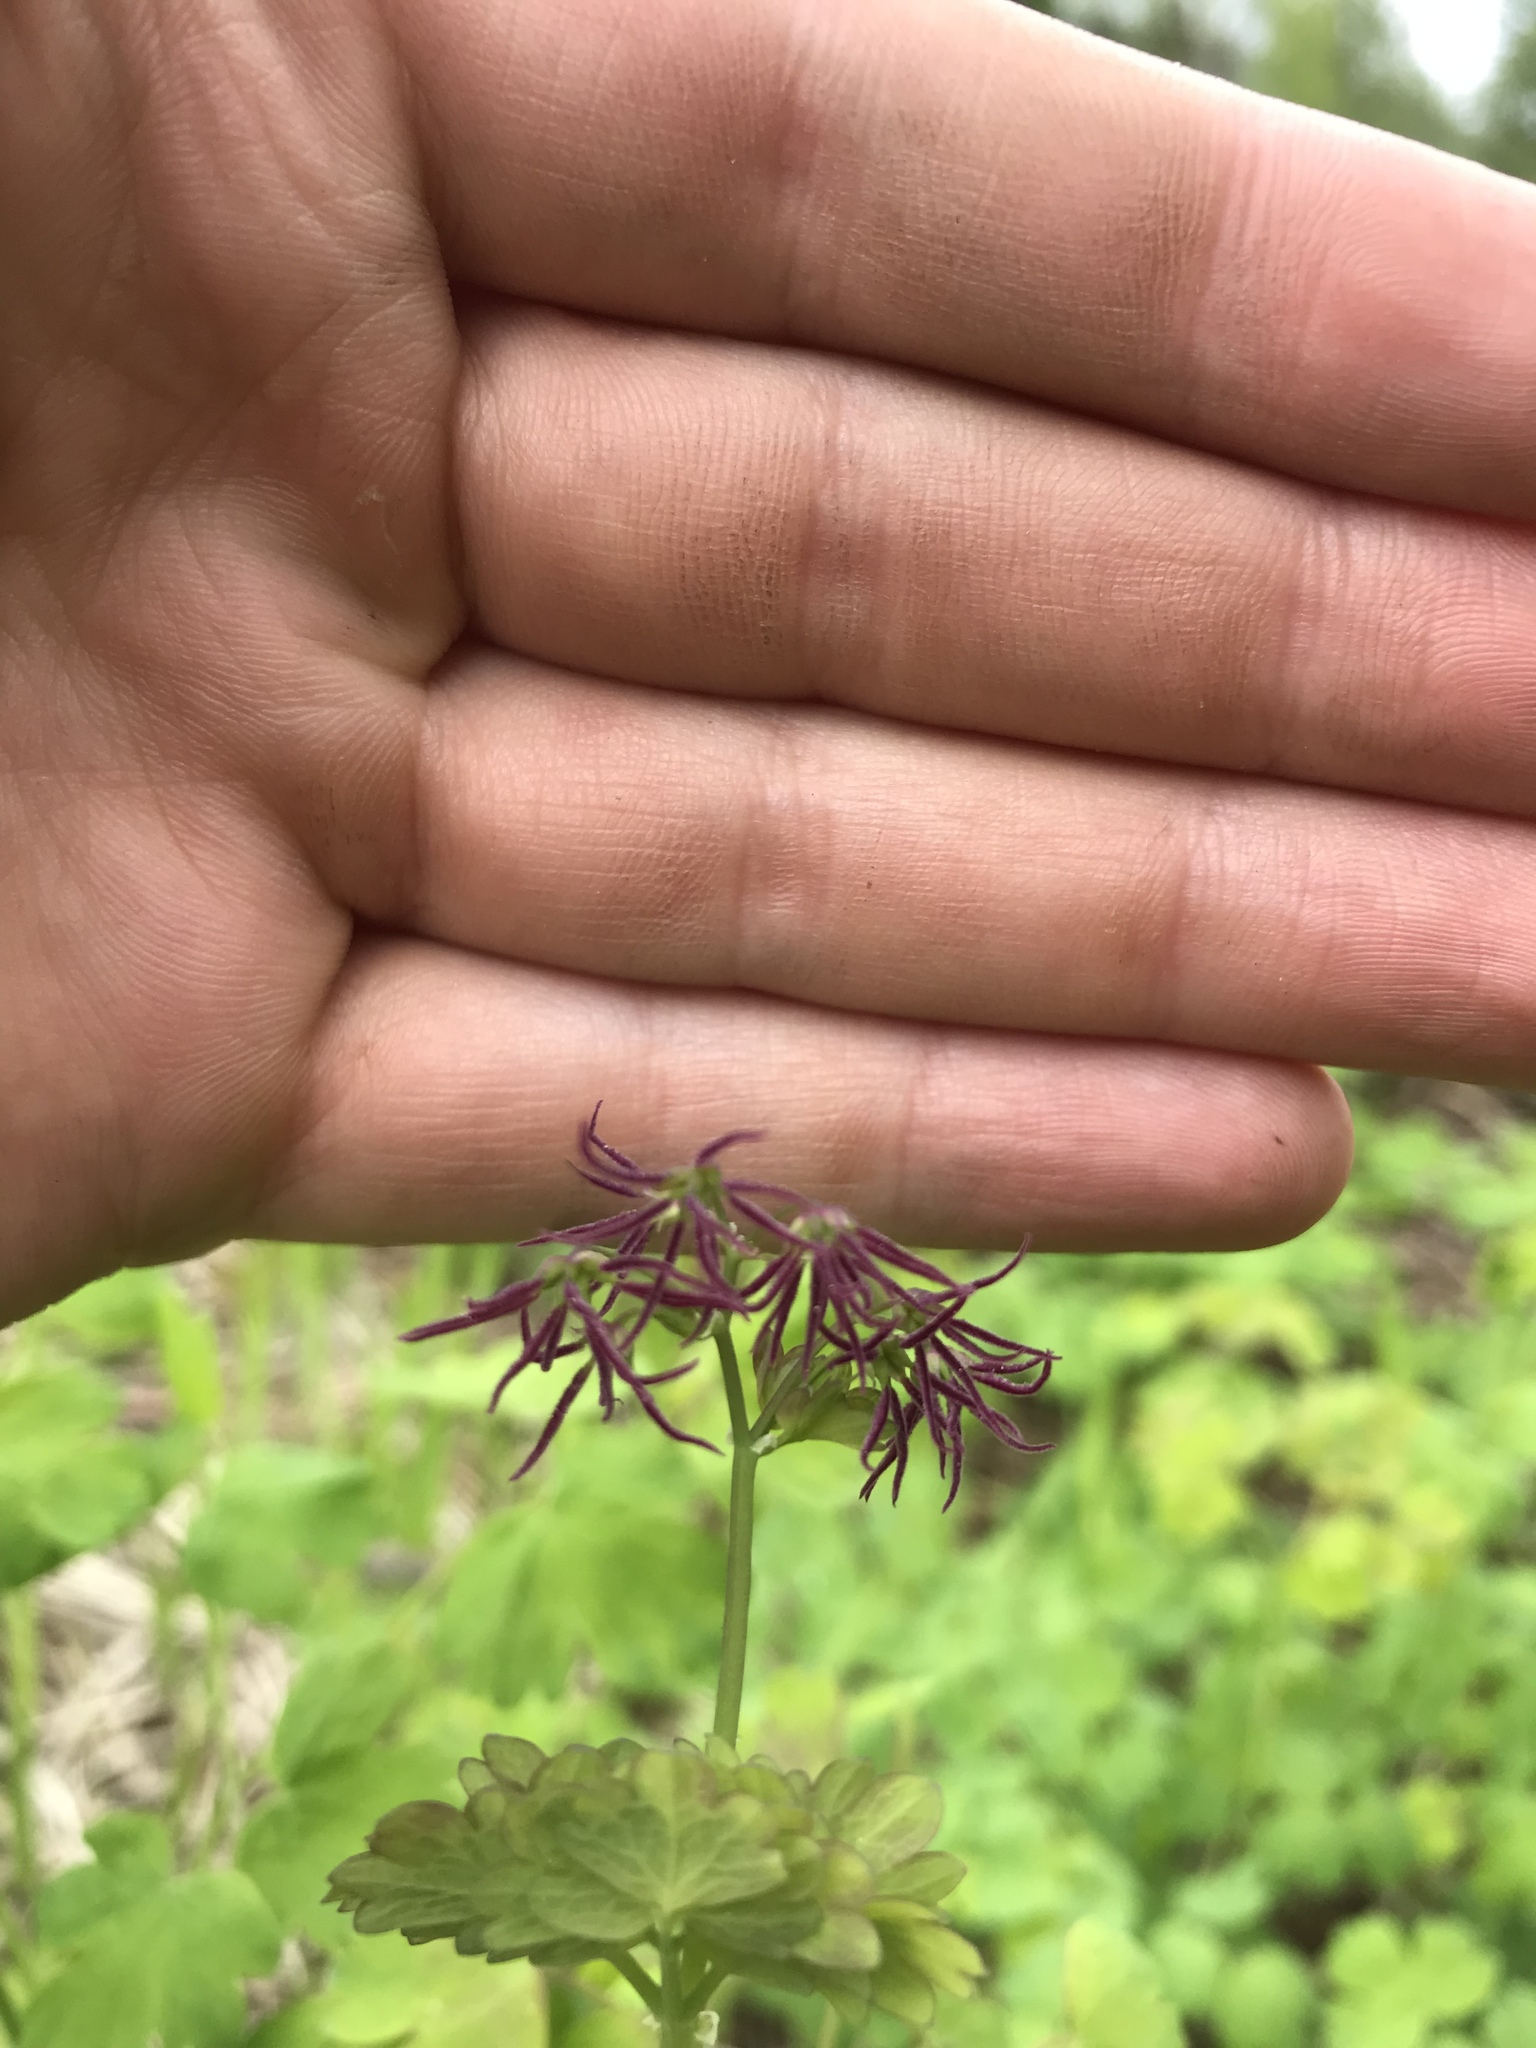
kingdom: Plantae
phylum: Tracheophyta
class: Magnoliopsida
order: Ranunculales
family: Ranunculaceae
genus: Thalictrum
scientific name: Thalictrum occidentale
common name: Western meadow-rue
